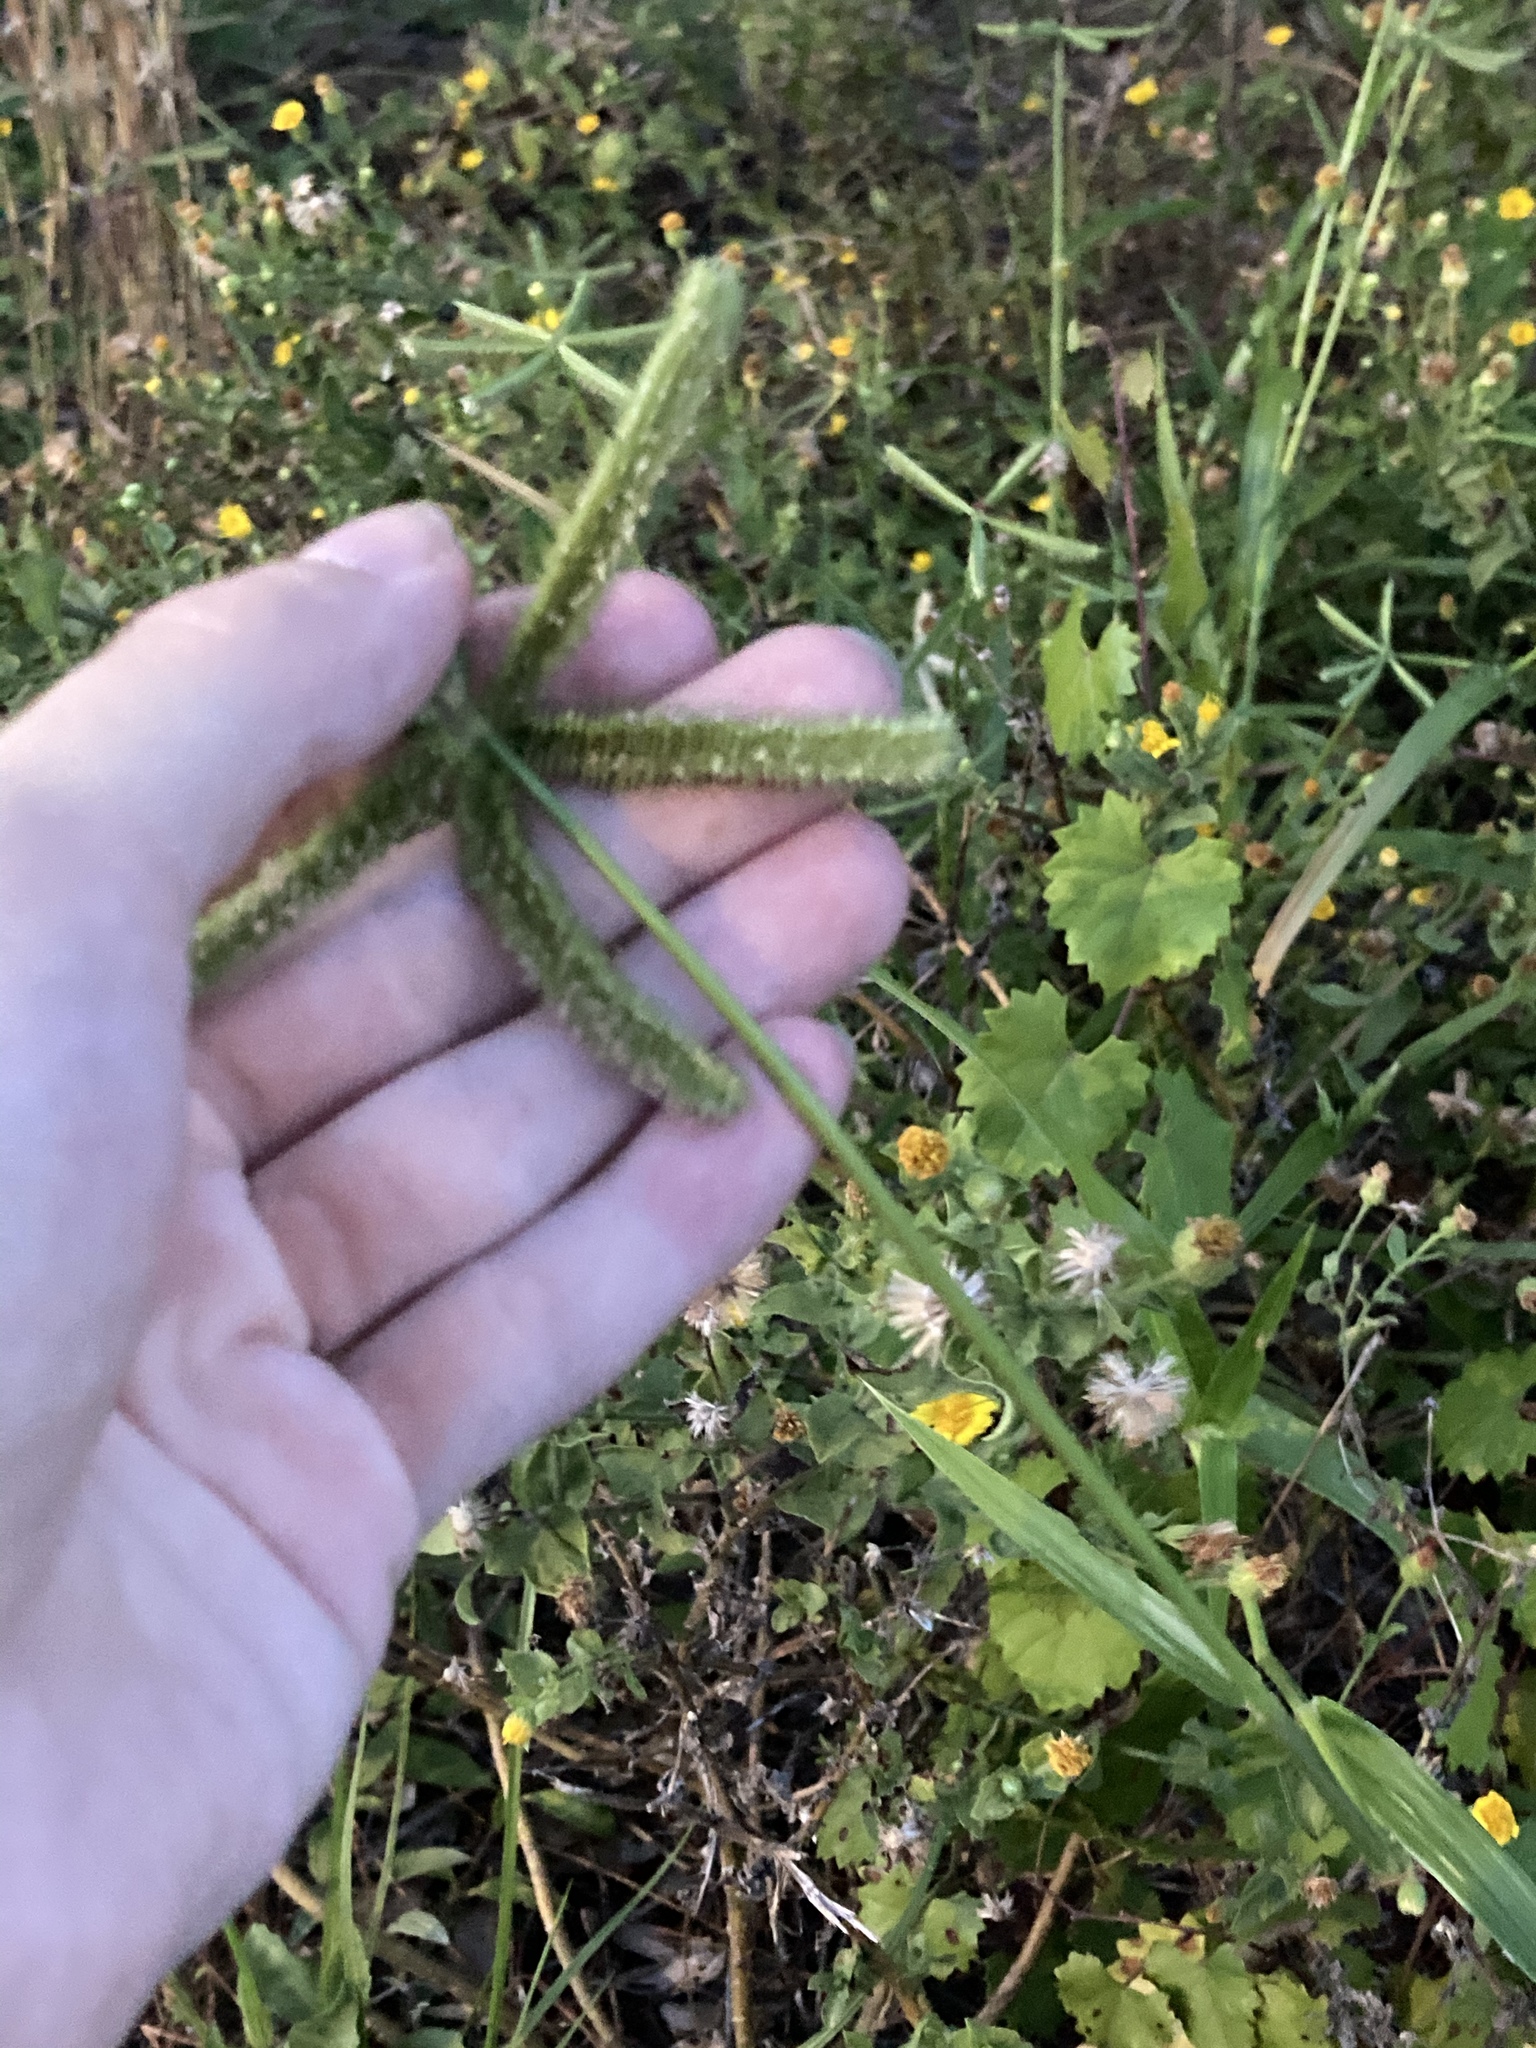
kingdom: Plantae
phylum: Tracheophyta
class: Liliopsida
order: Poales
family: Poaceae
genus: Dactyloctenium
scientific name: Dactyloctenium aegyptium
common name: Egyptian grass
